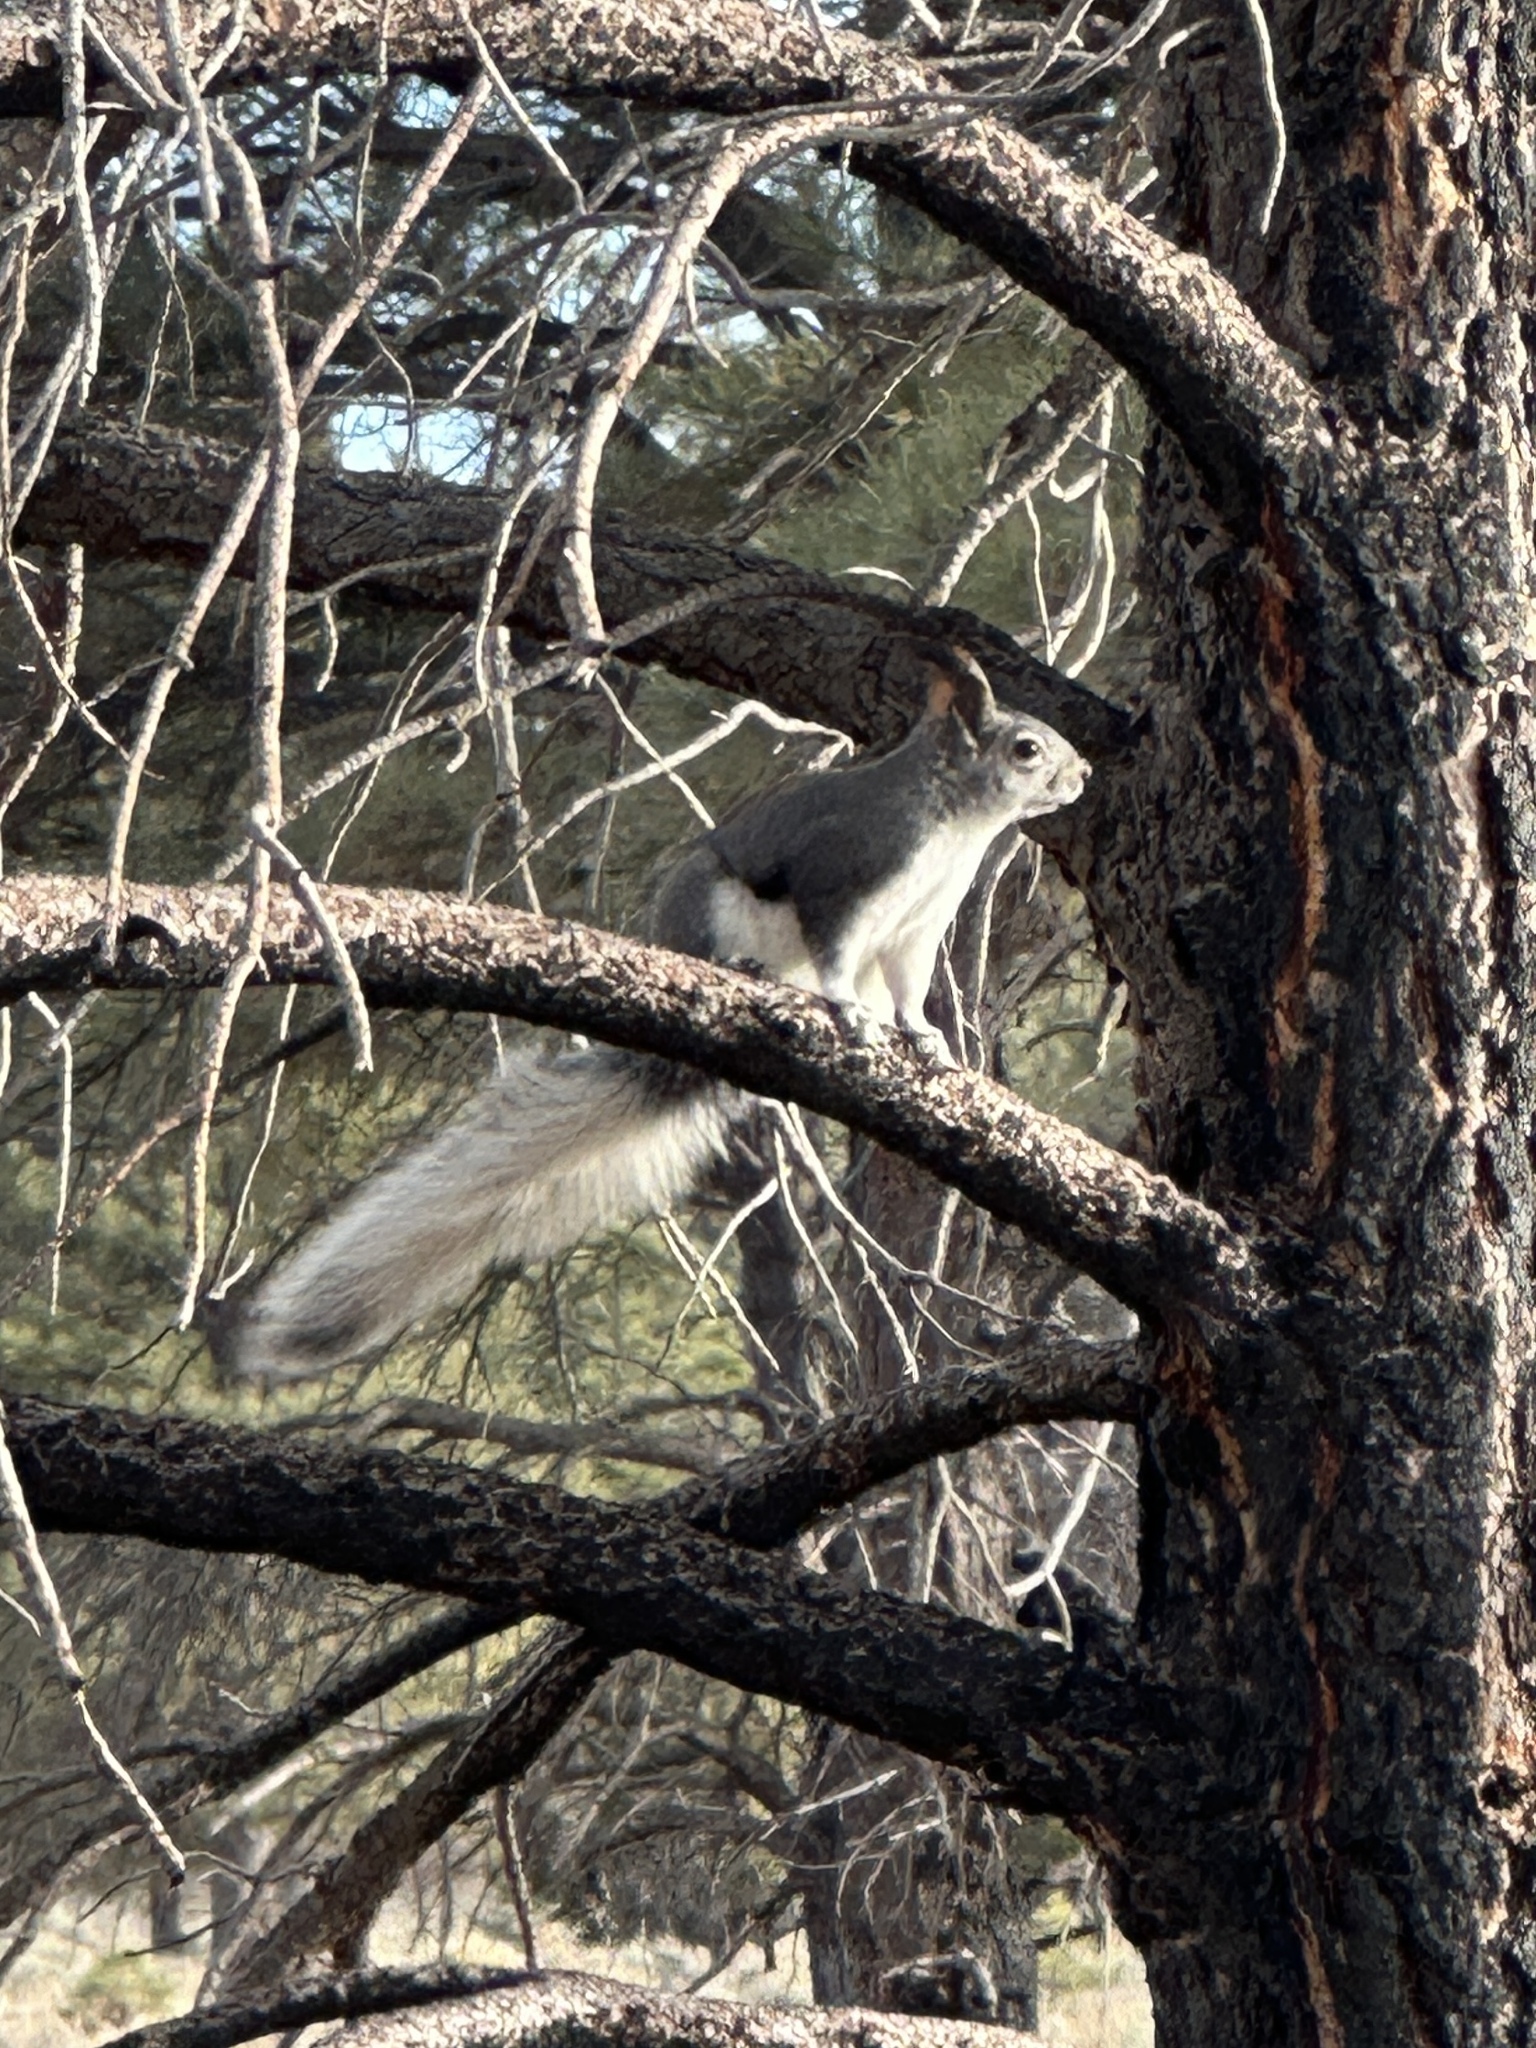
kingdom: Animalia
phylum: Chordata
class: Mammalia
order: Rodentia
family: Sciuridae
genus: Sciurus
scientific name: Sciurus aberti
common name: Abert's squirrel
